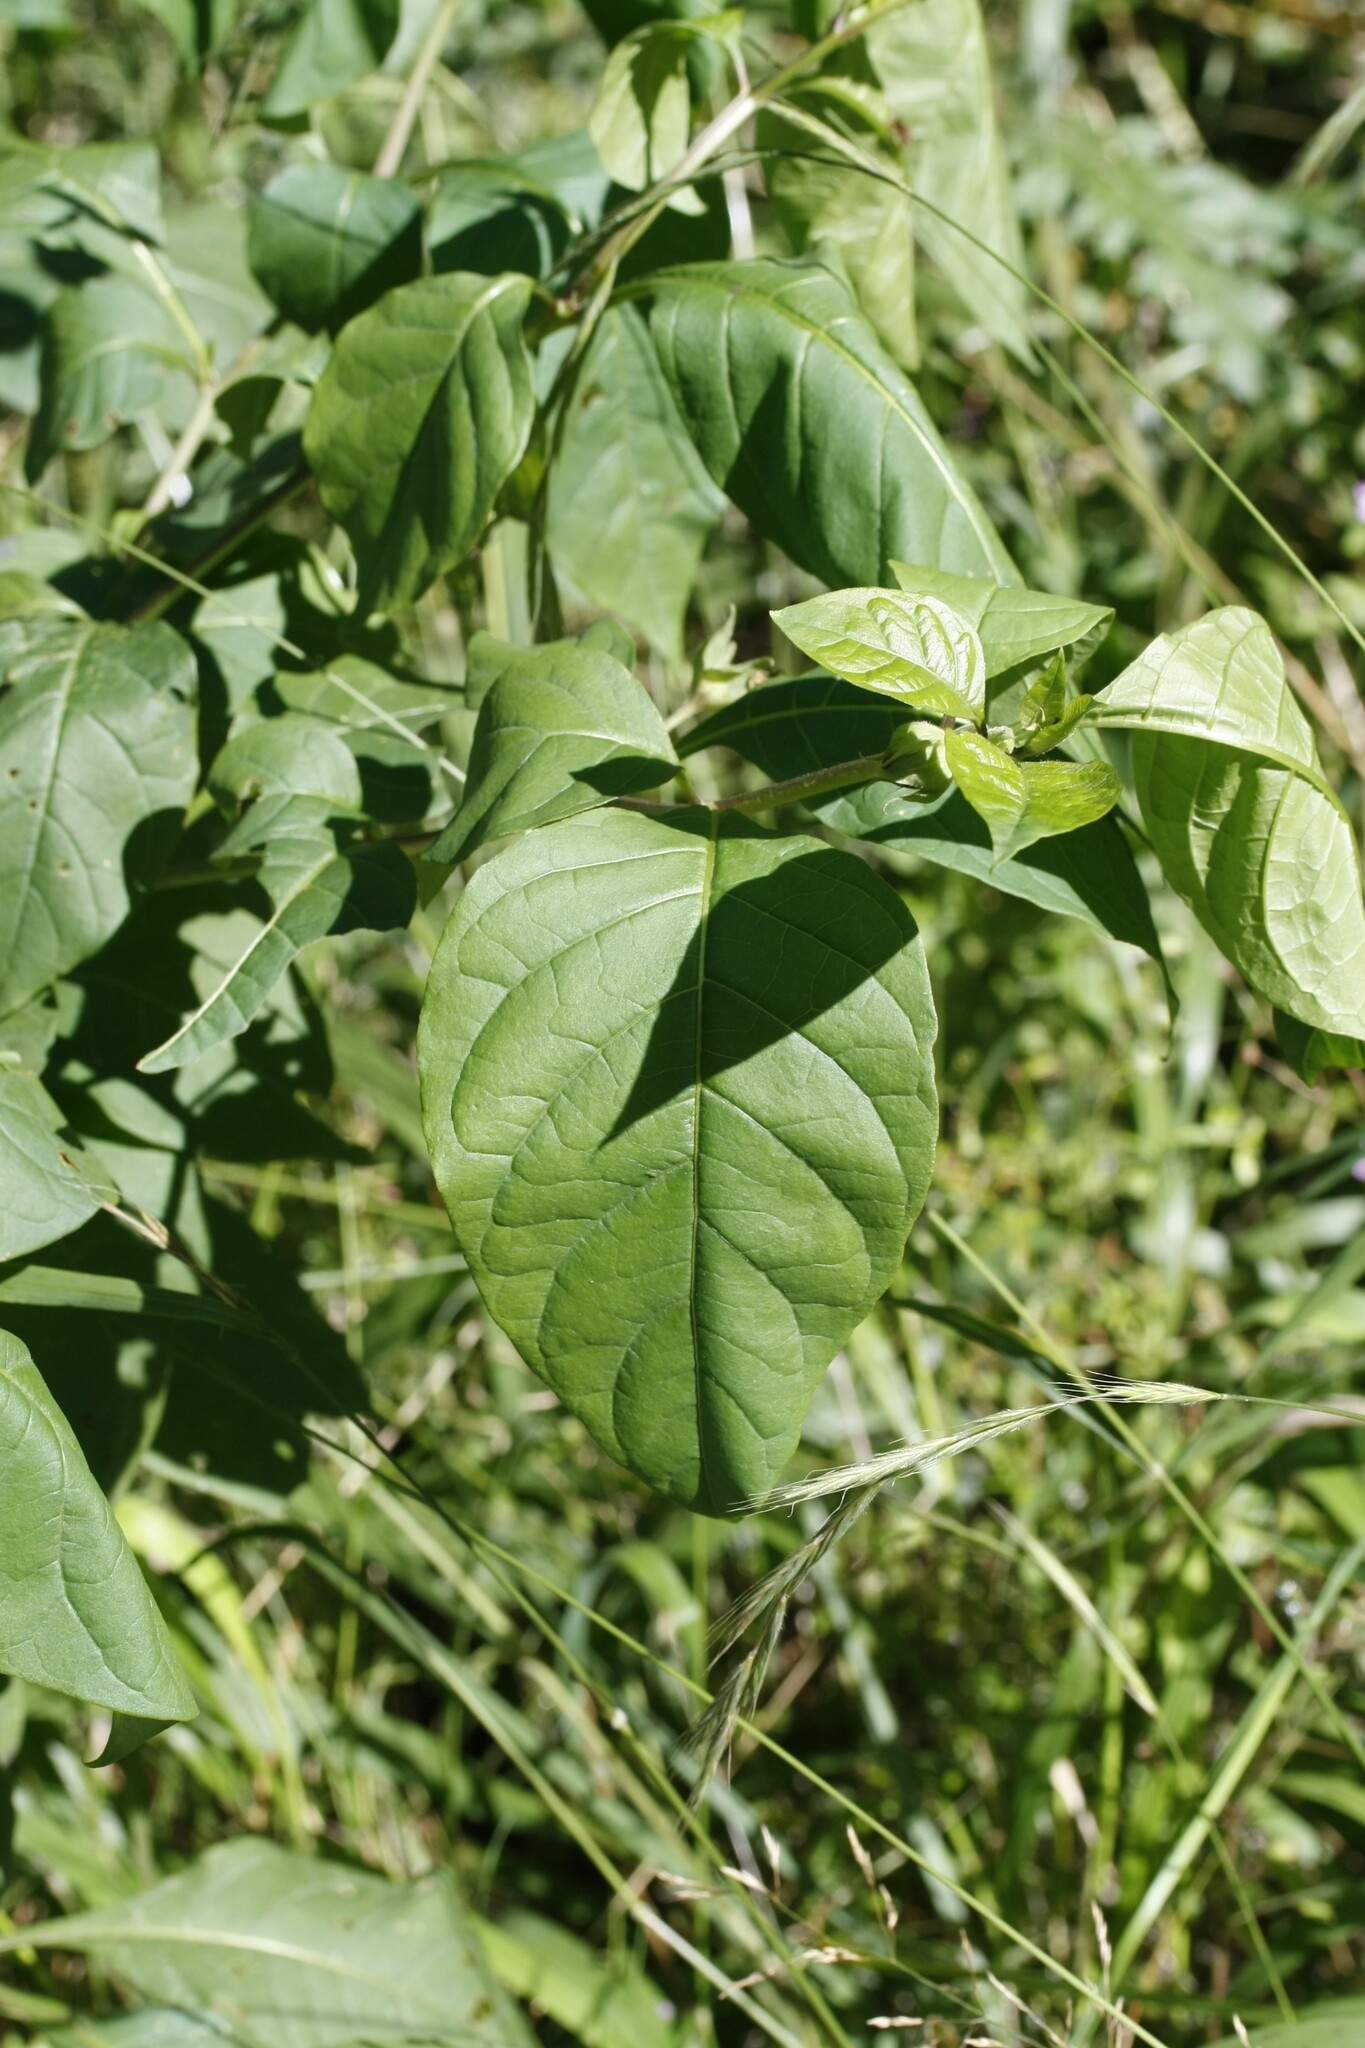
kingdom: Plantae
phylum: Tracheophyta
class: Magnoliopsida
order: Solanales
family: Solanaceae
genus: Atropa
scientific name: Atropa belladonna
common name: Deadly nightshade
